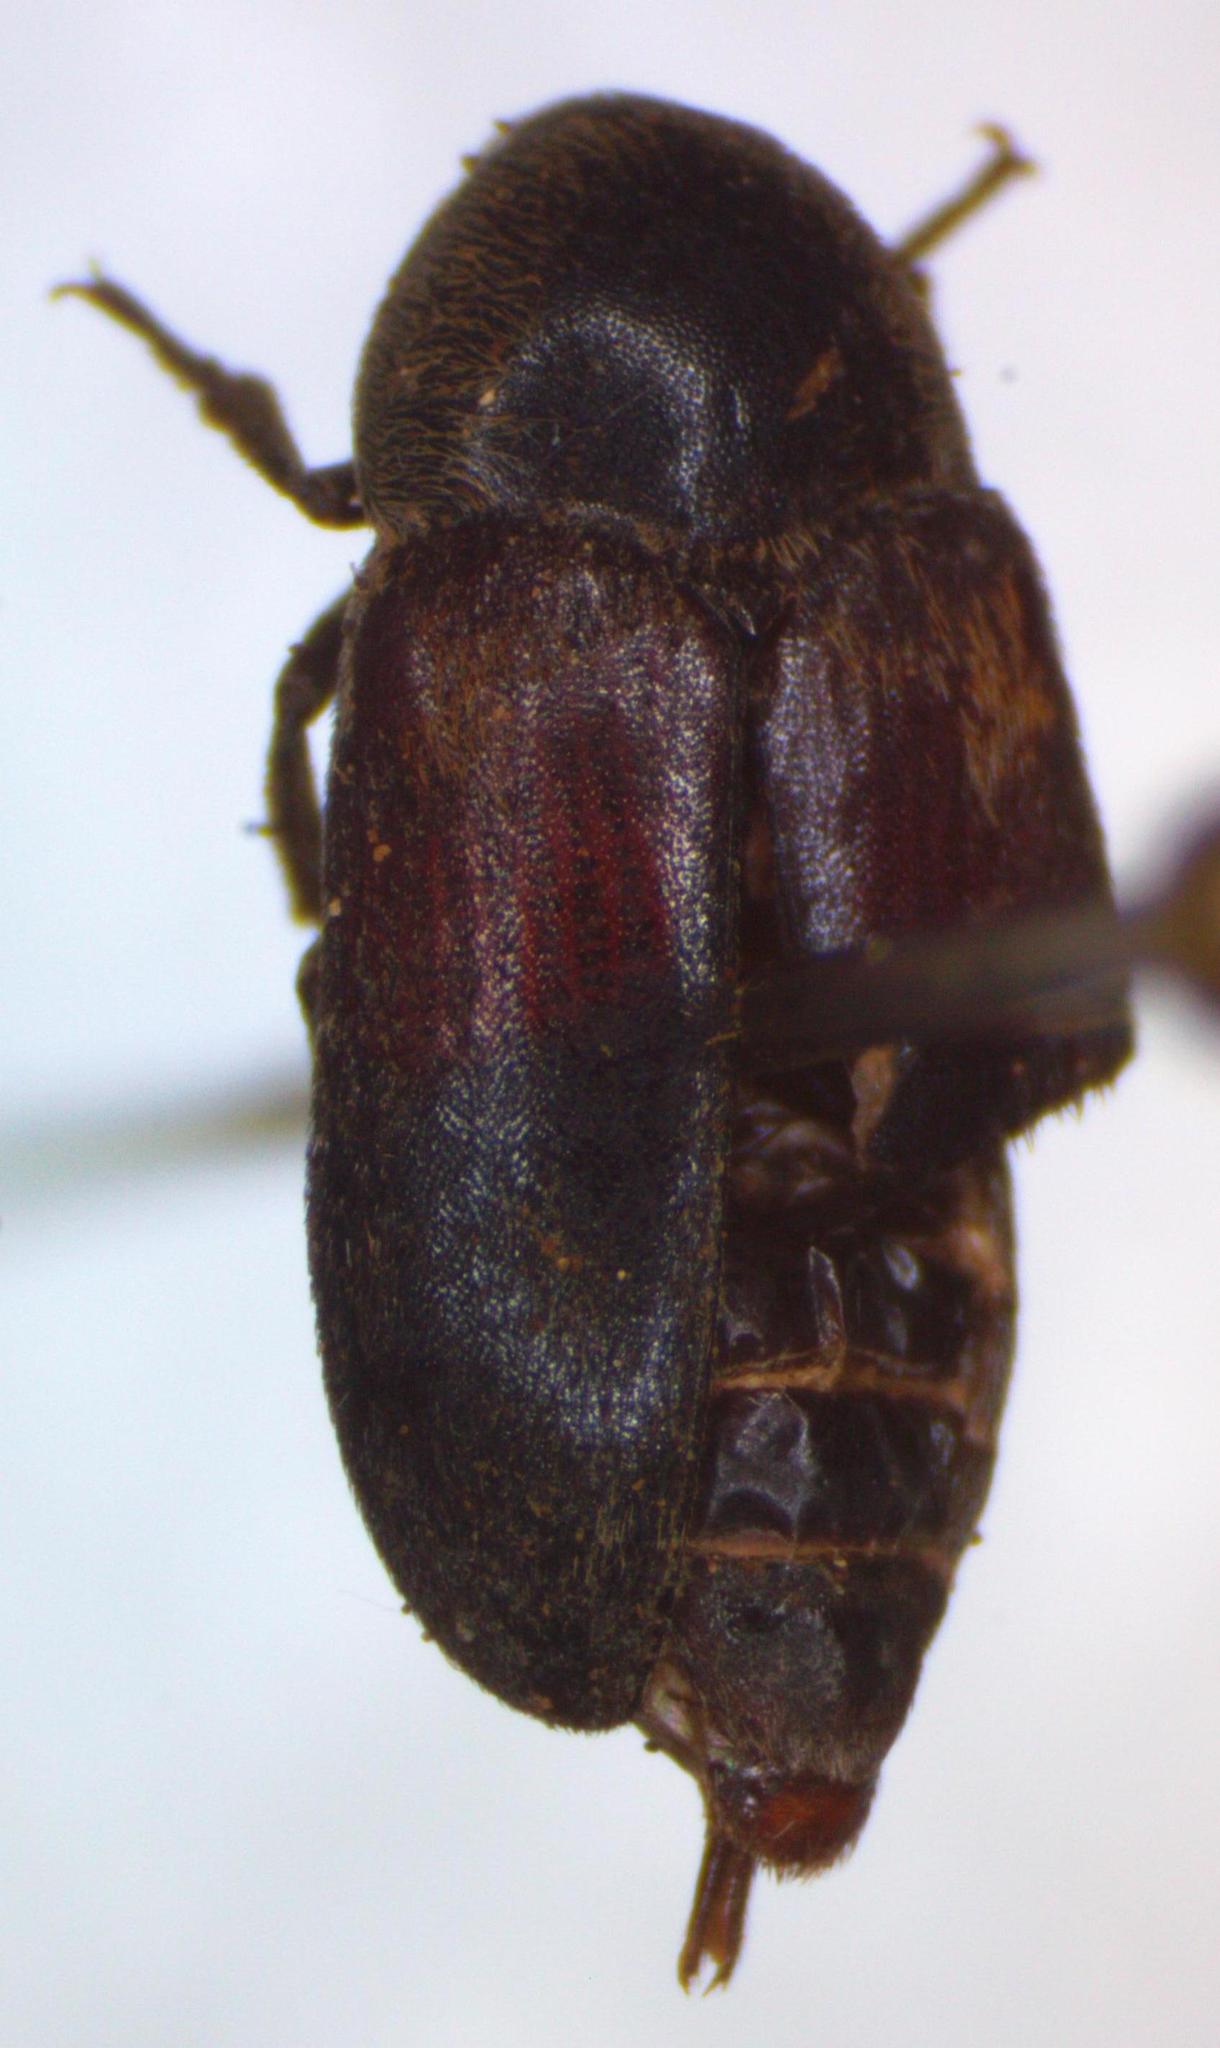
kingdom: Animalia
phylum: Arthropoda
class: Insecta
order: Coleoptera
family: Dermestidae
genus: Dermestes
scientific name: Dermestes carnivorus
